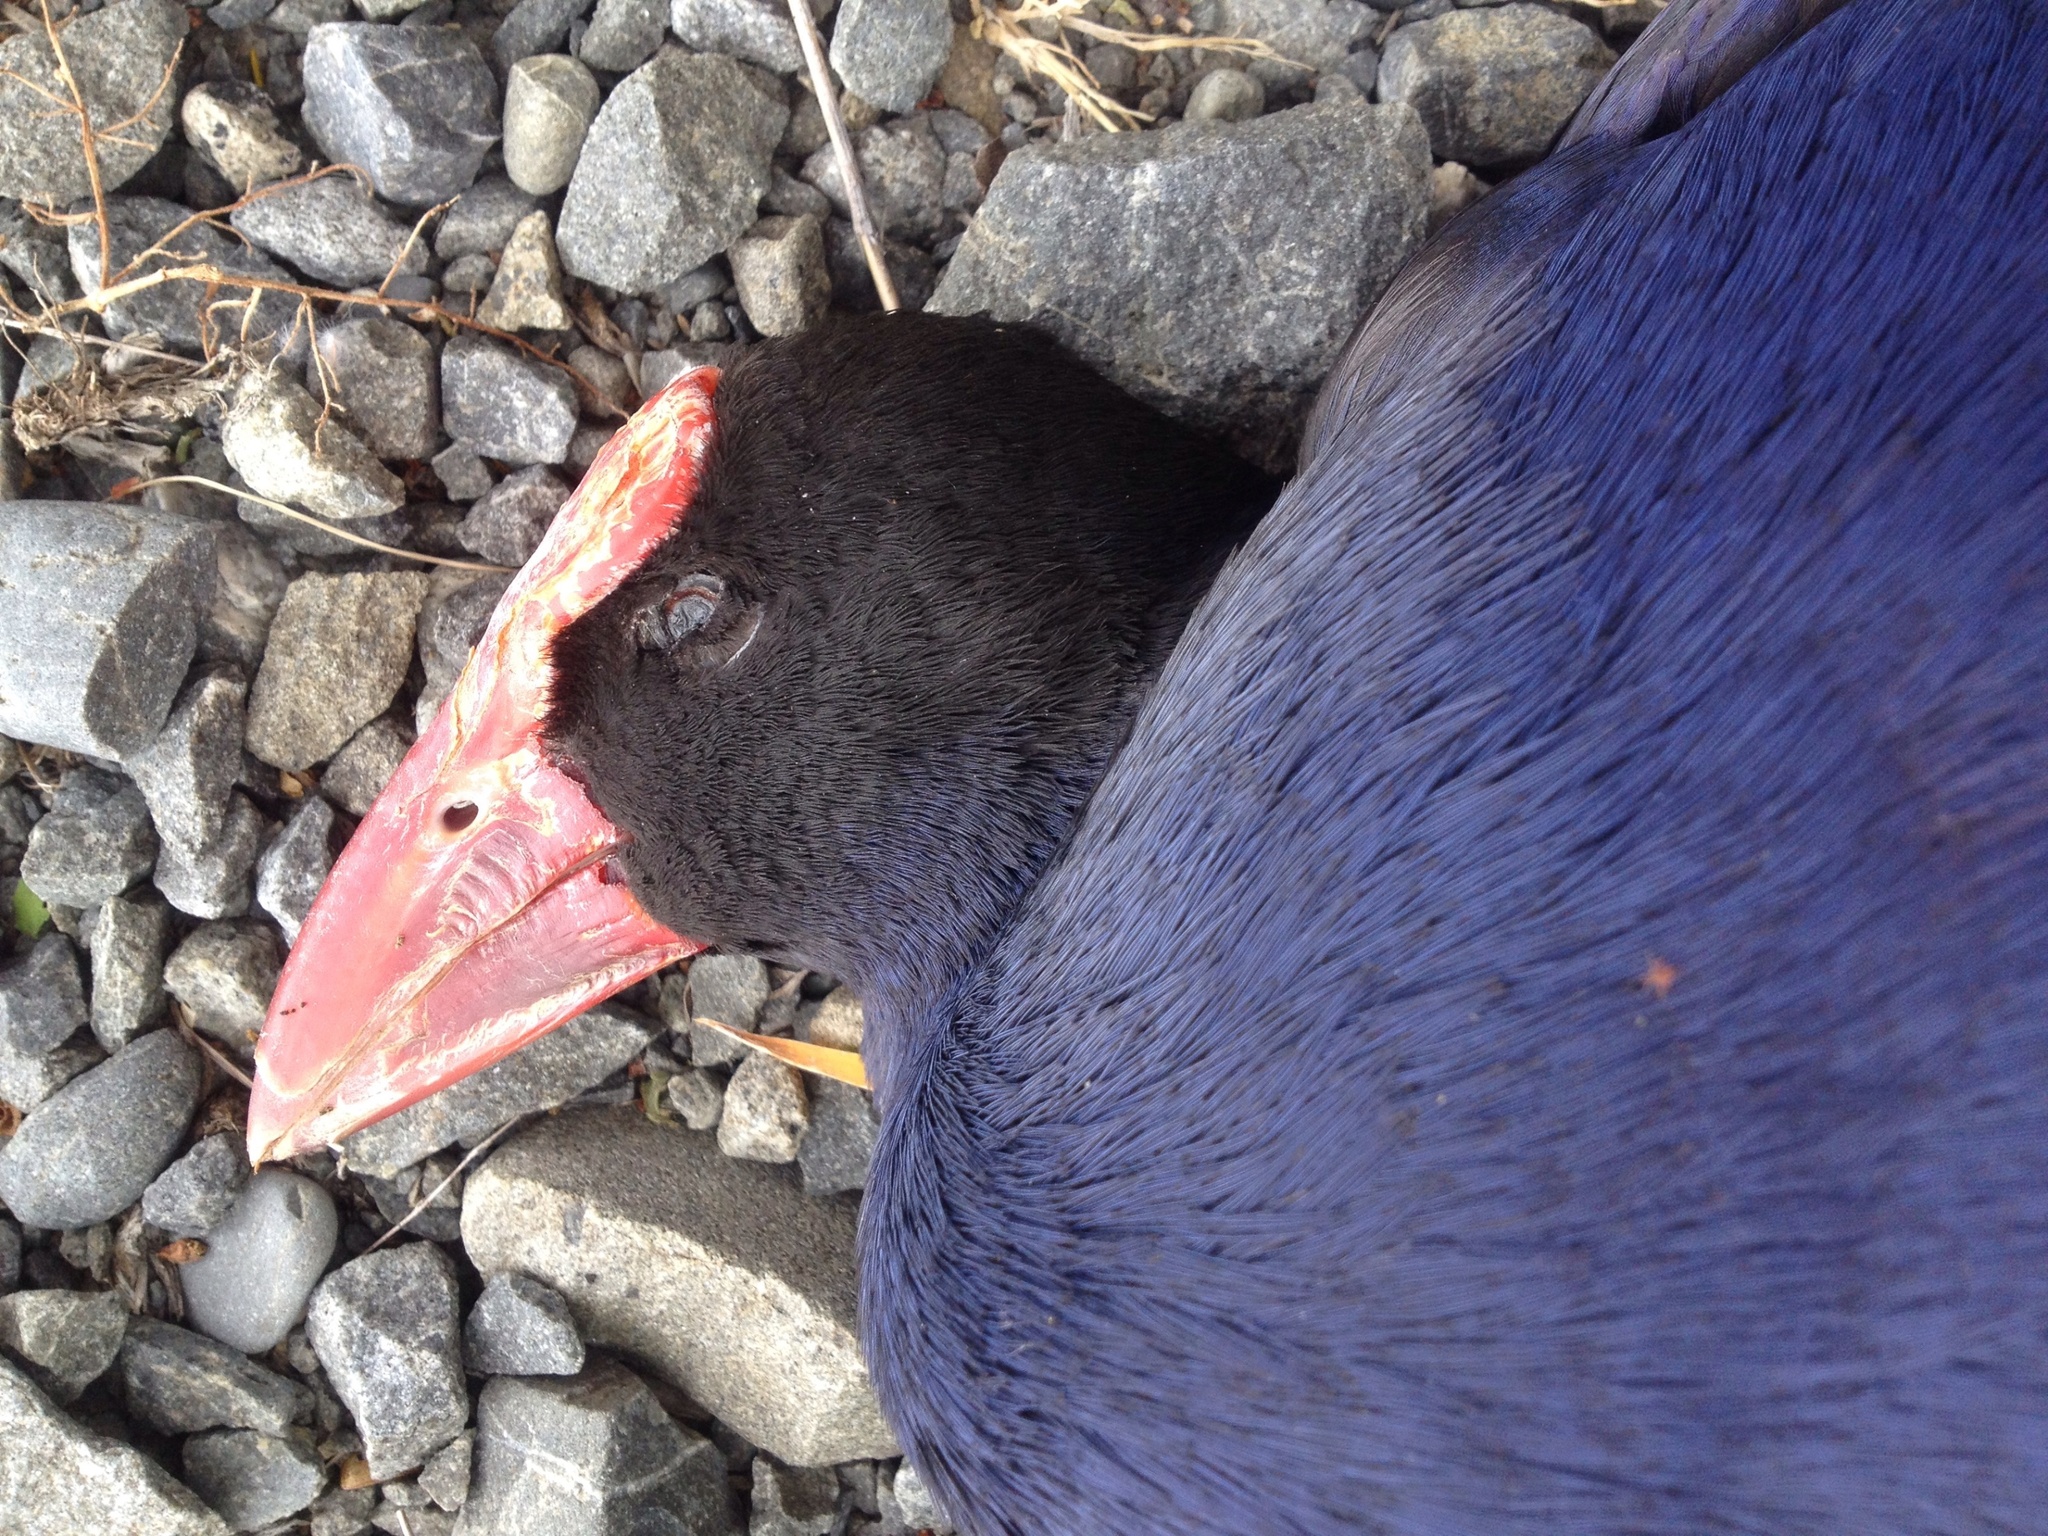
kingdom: Animalia
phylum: Chordata
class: Aves
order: Gruiformes
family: Rallidae
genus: Porphyrio
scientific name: Porphyrio melanotus
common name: Australasian swamphen
